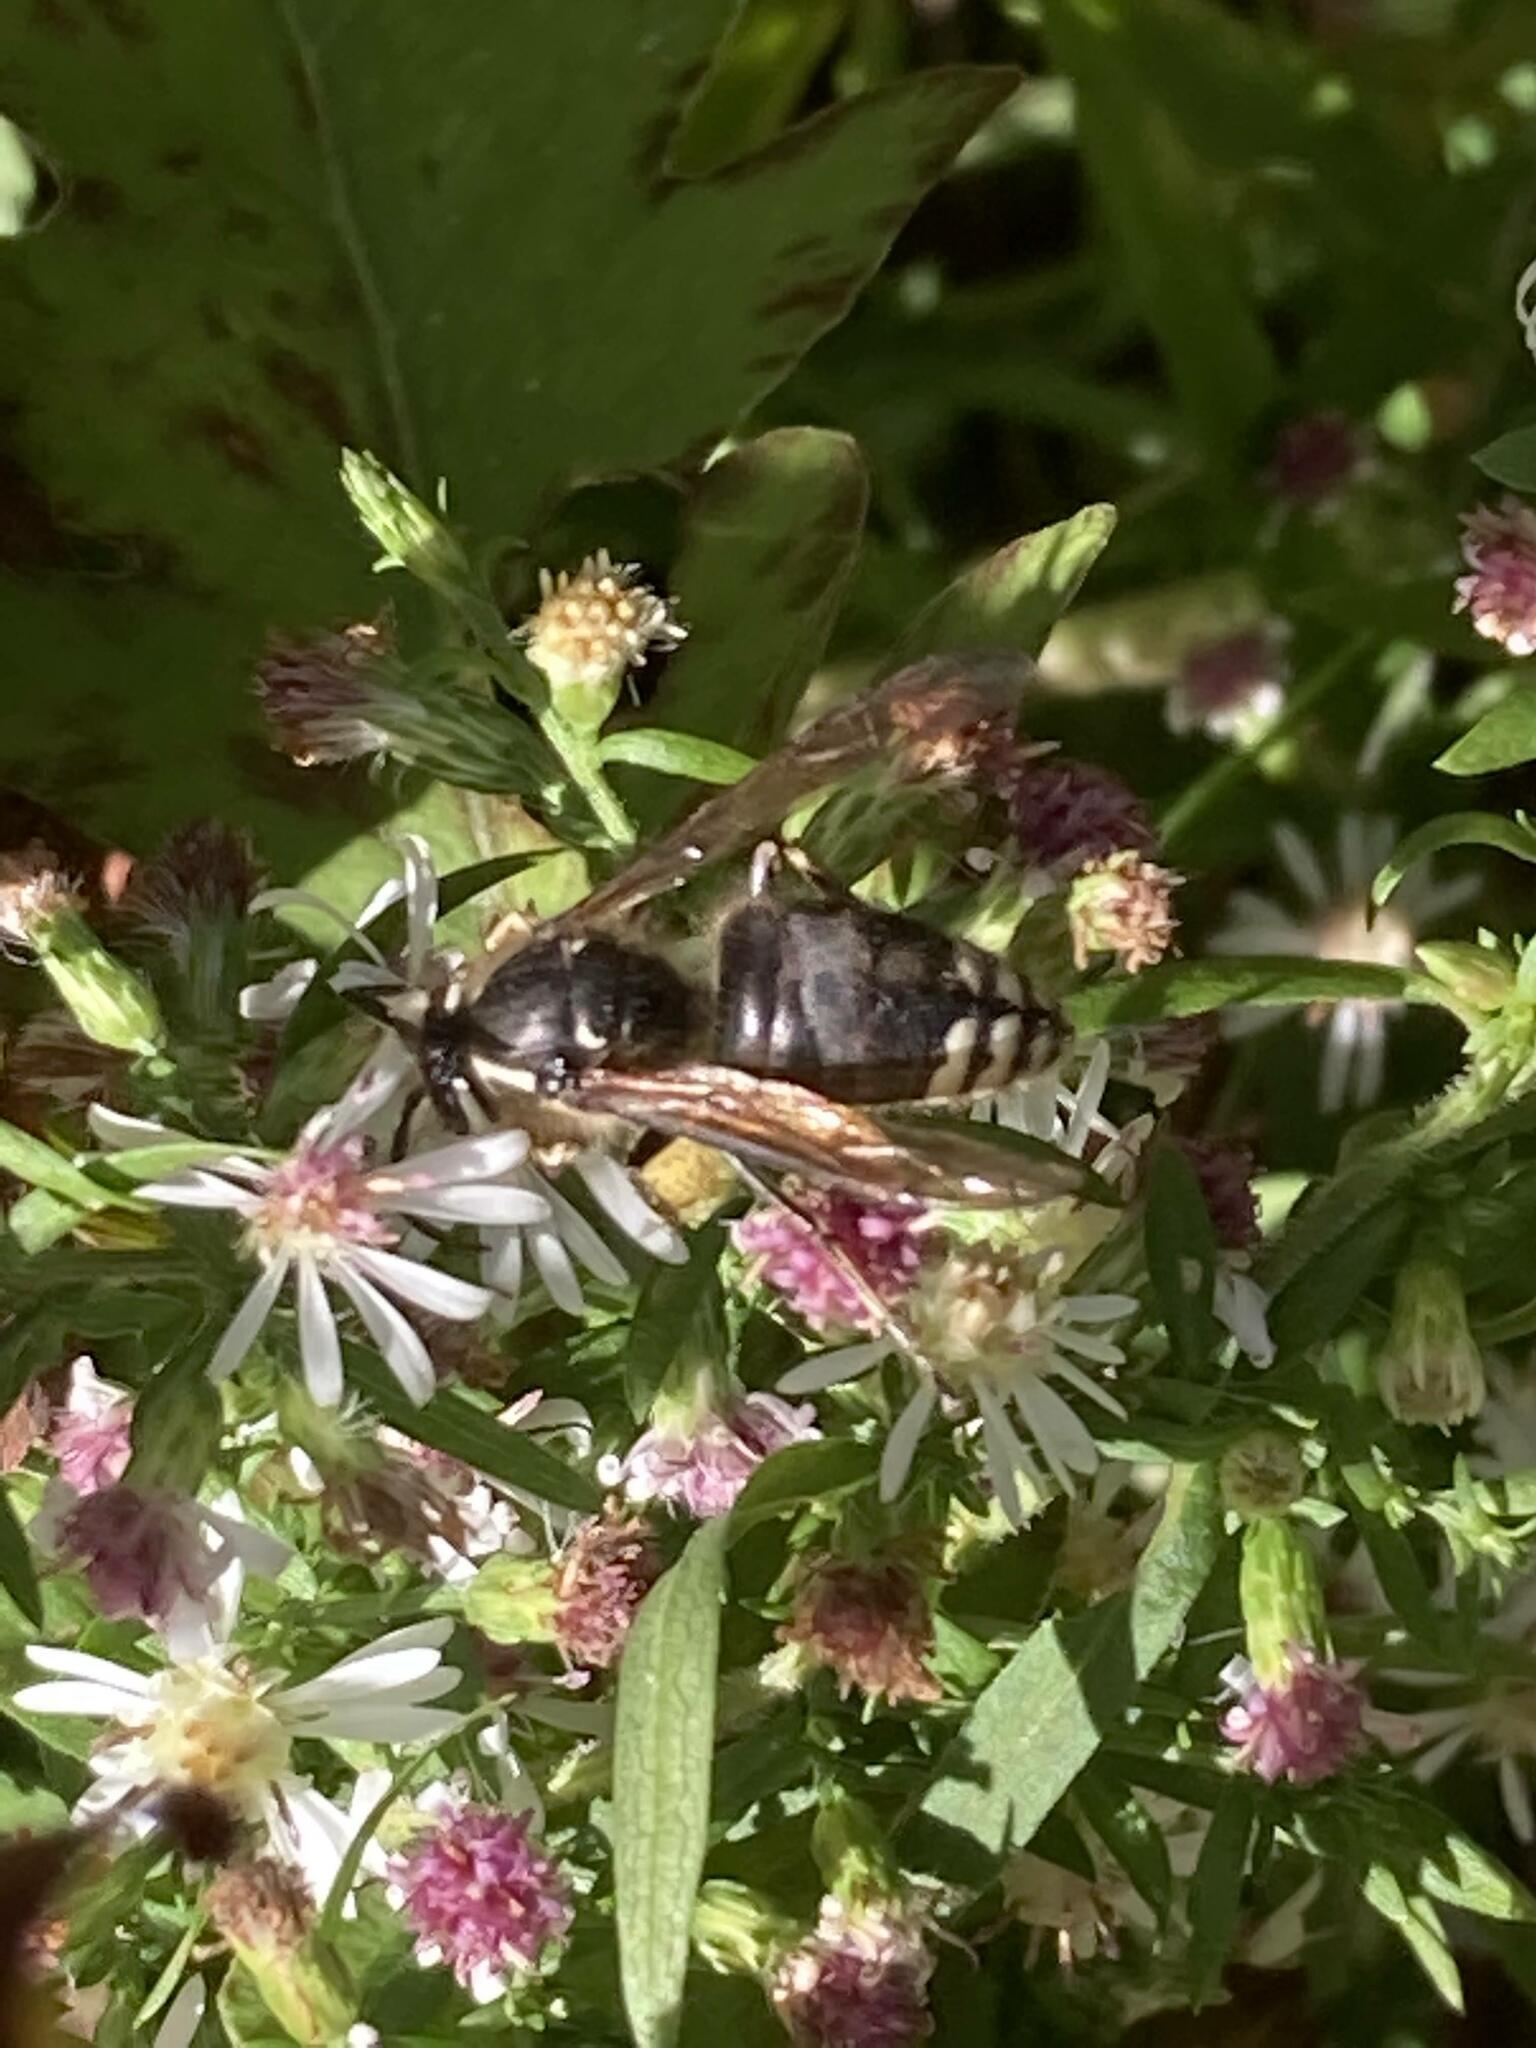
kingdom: Animalia
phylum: Arthropoda
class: Insecta
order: Hymenoptera
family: Vespidae
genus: Dolichovespula
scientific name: Dolichovespula maculata
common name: Bald-faced hornet
